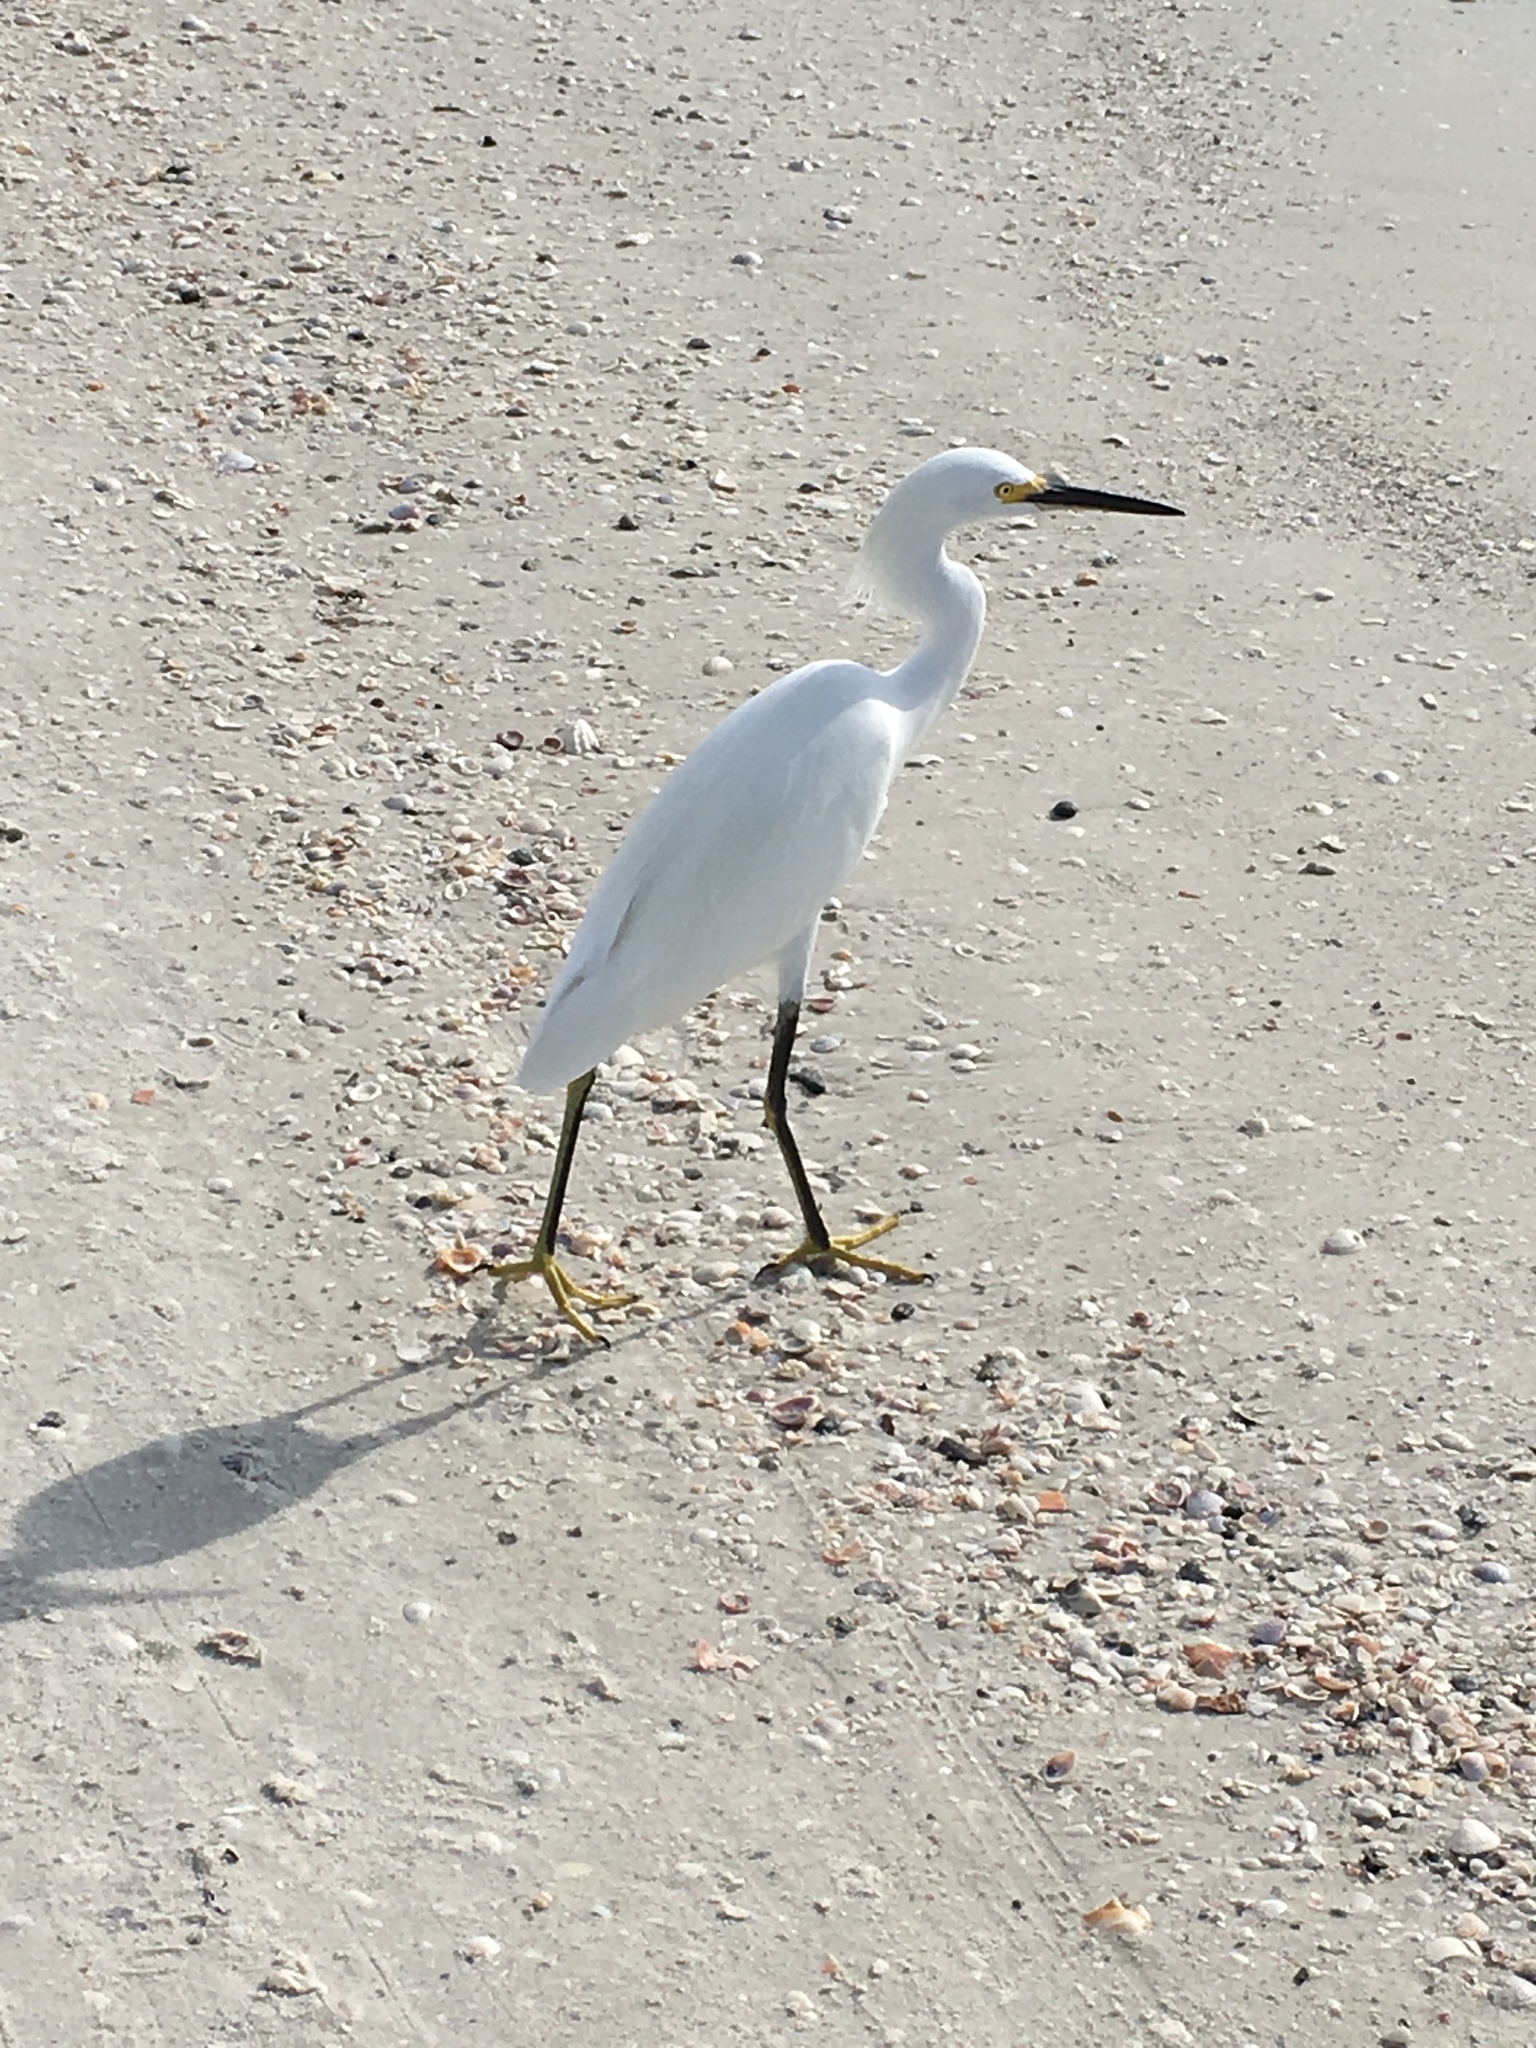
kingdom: Animalia
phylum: Chordata
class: Aves
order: Pelecaniformes
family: Ardeidae
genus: Egretta
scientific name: Egretta thula
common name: Snowy egret
